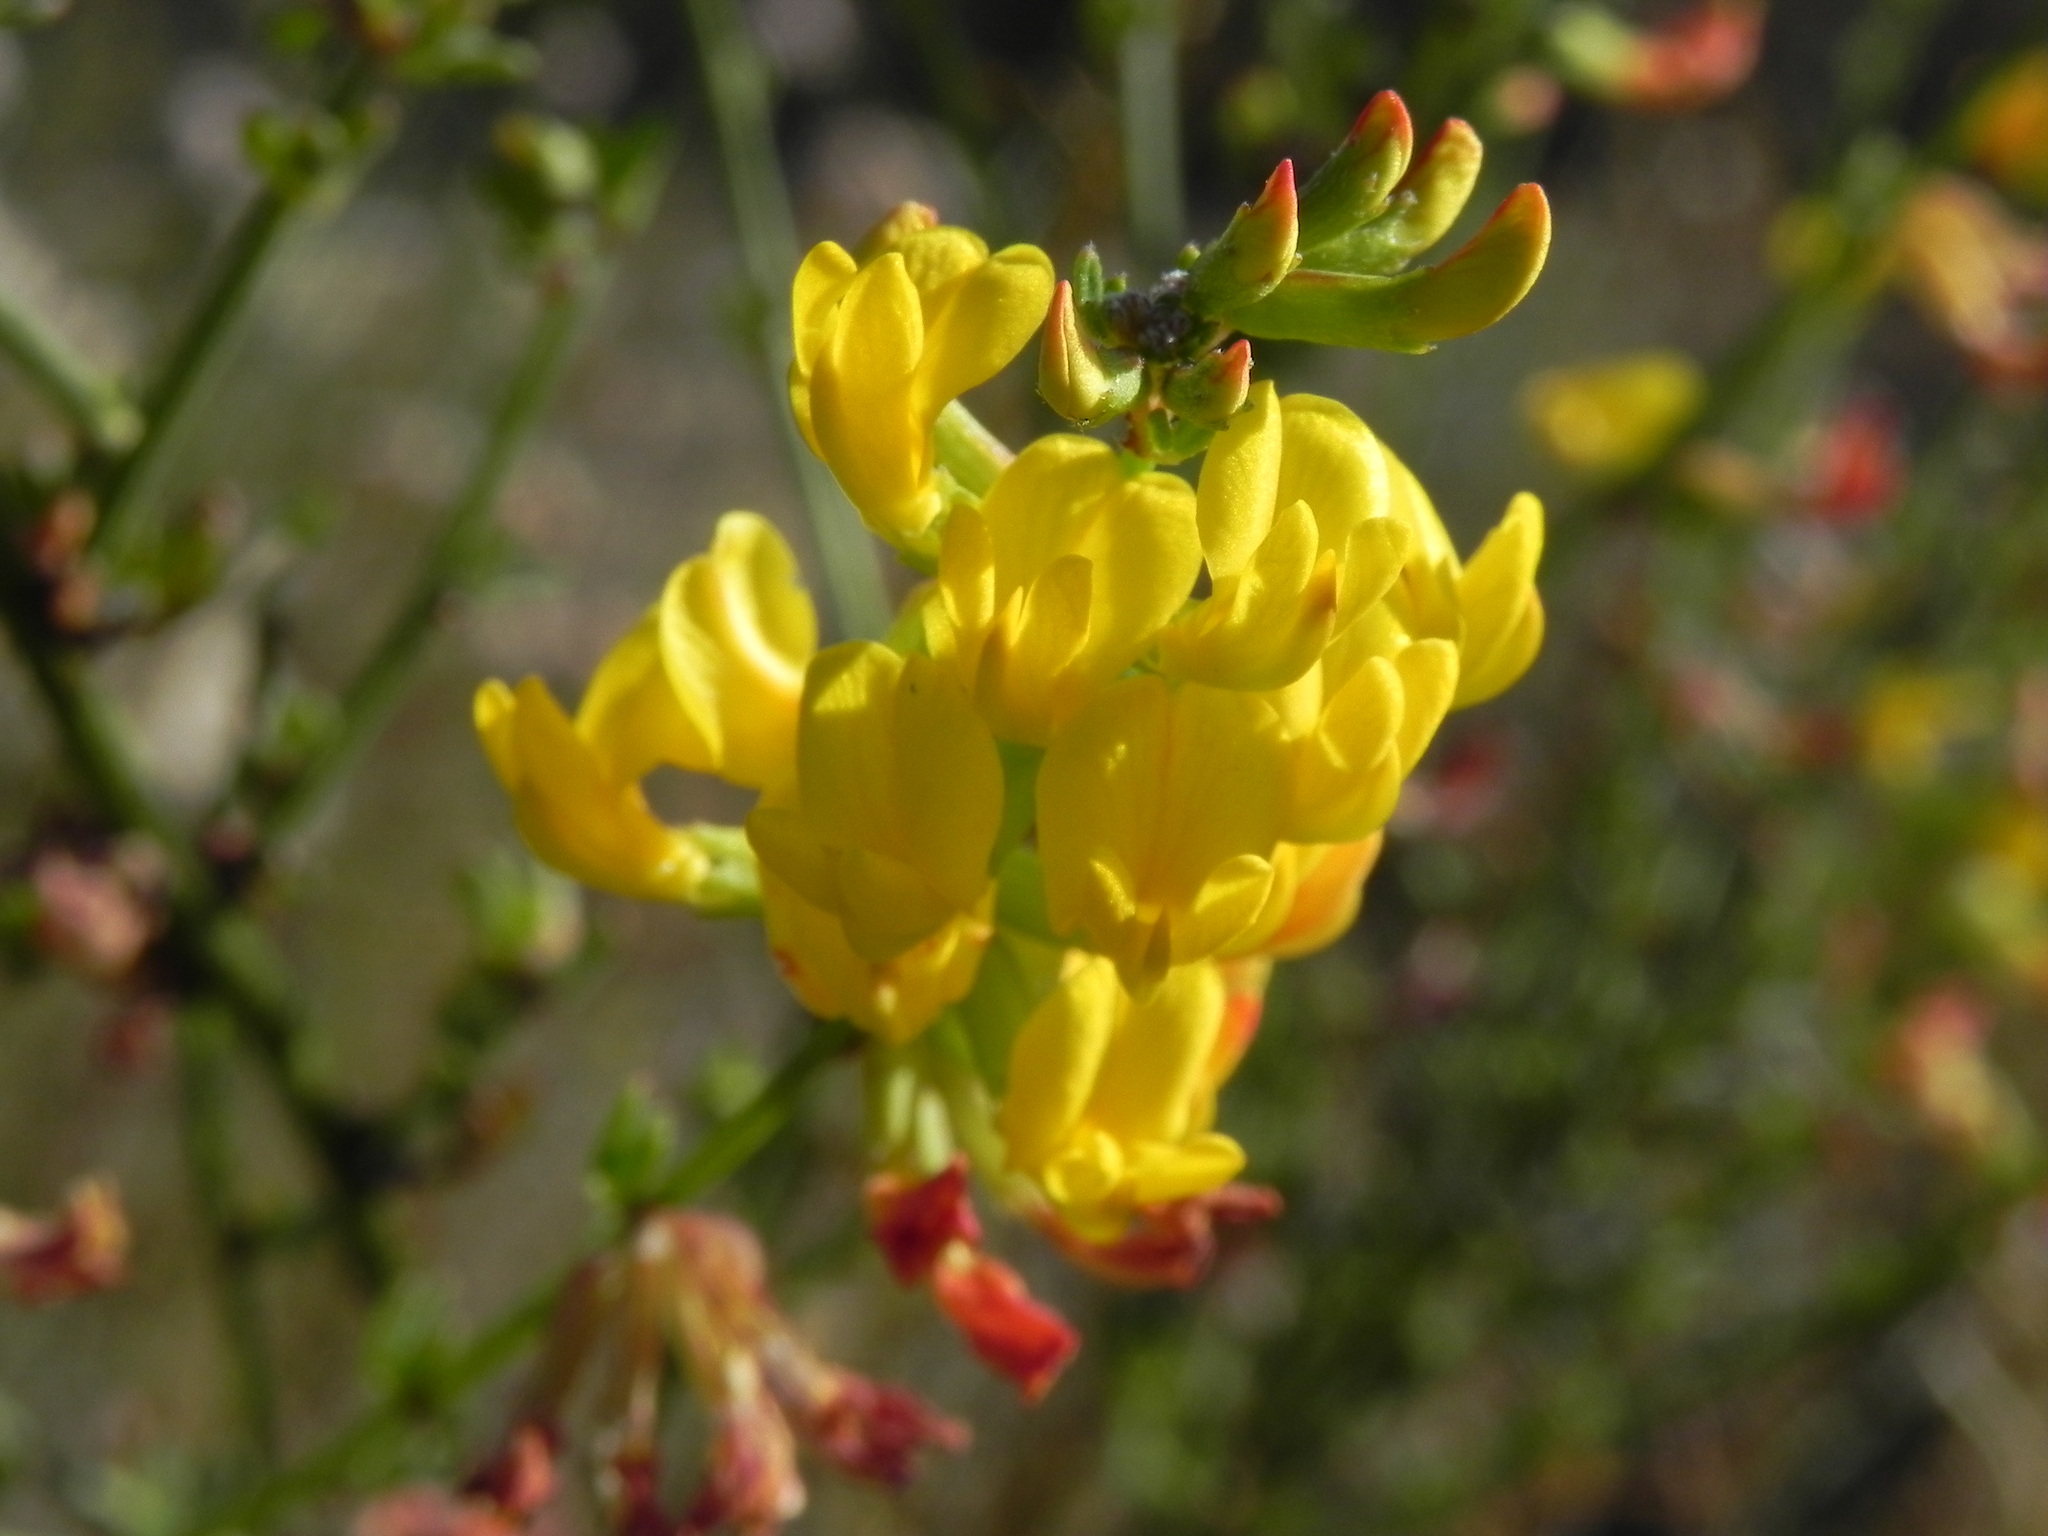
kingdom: Plantae
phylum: Tracheophyta
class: Magnoliopsida
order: Fabales
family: Fabaceae
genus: Acmispon
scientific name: Acmispon glaber
